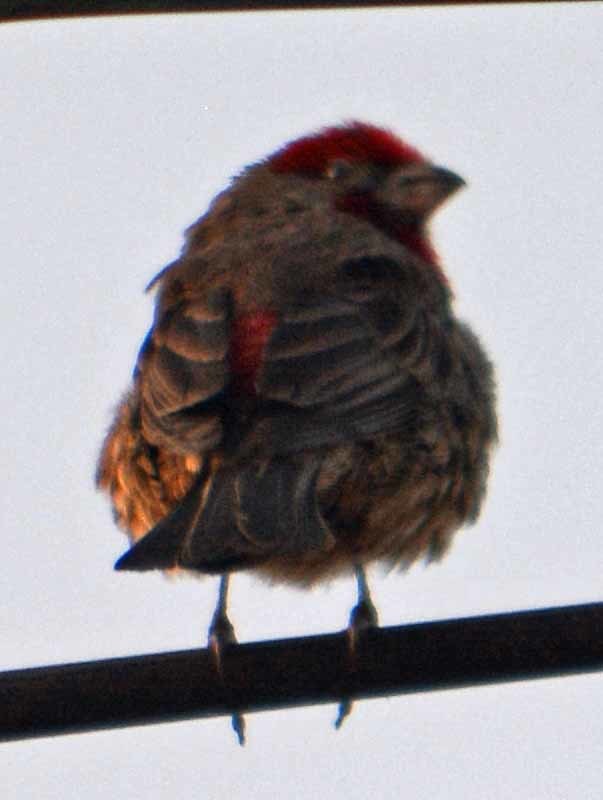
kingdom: Animalia
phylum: Chordata
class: Aves
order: Passeriformes
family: Fringillidae
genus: Haemorhous
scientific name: Haemorhous mexicanus
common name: House finch
